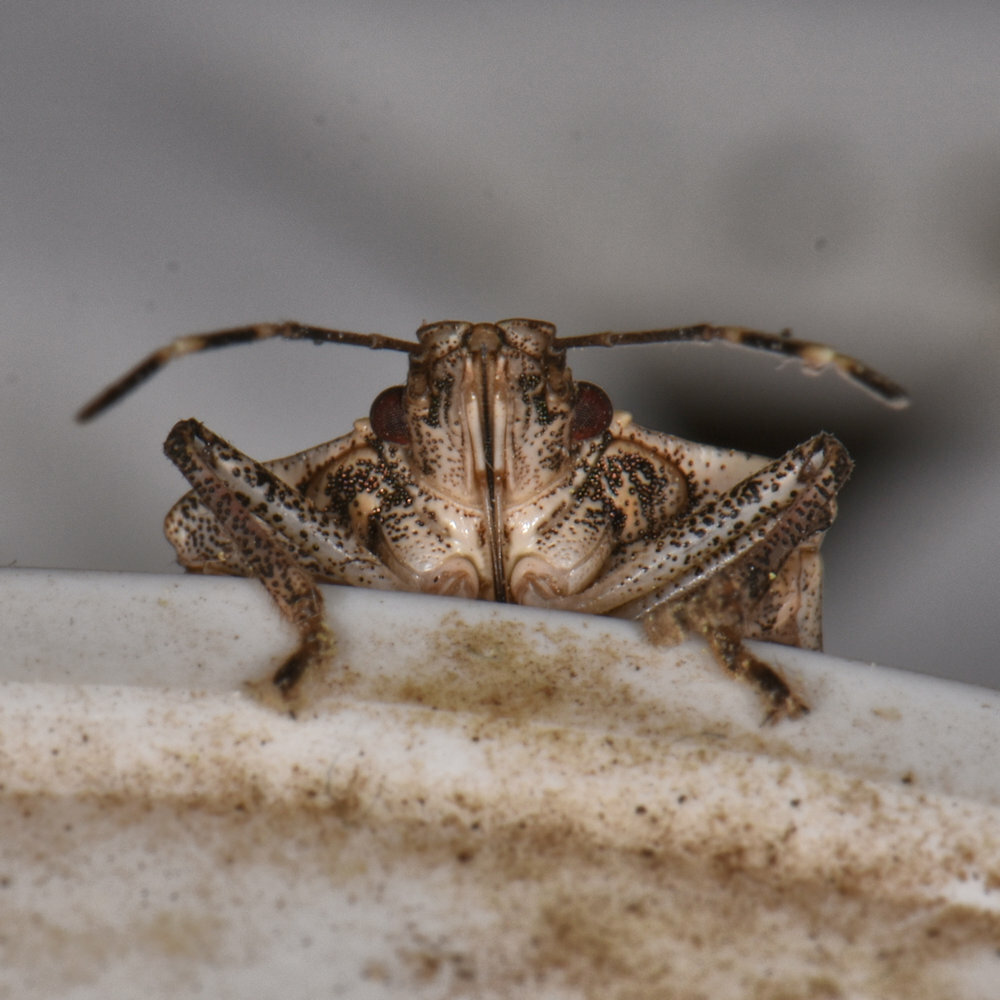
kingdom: Animalia
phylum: Arthropoda
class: Insecta
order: Hemiptera
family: Pentatomidae
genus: Halyomorpha
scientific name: Halyomorpha halys
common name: Brown marmorated stink bug
